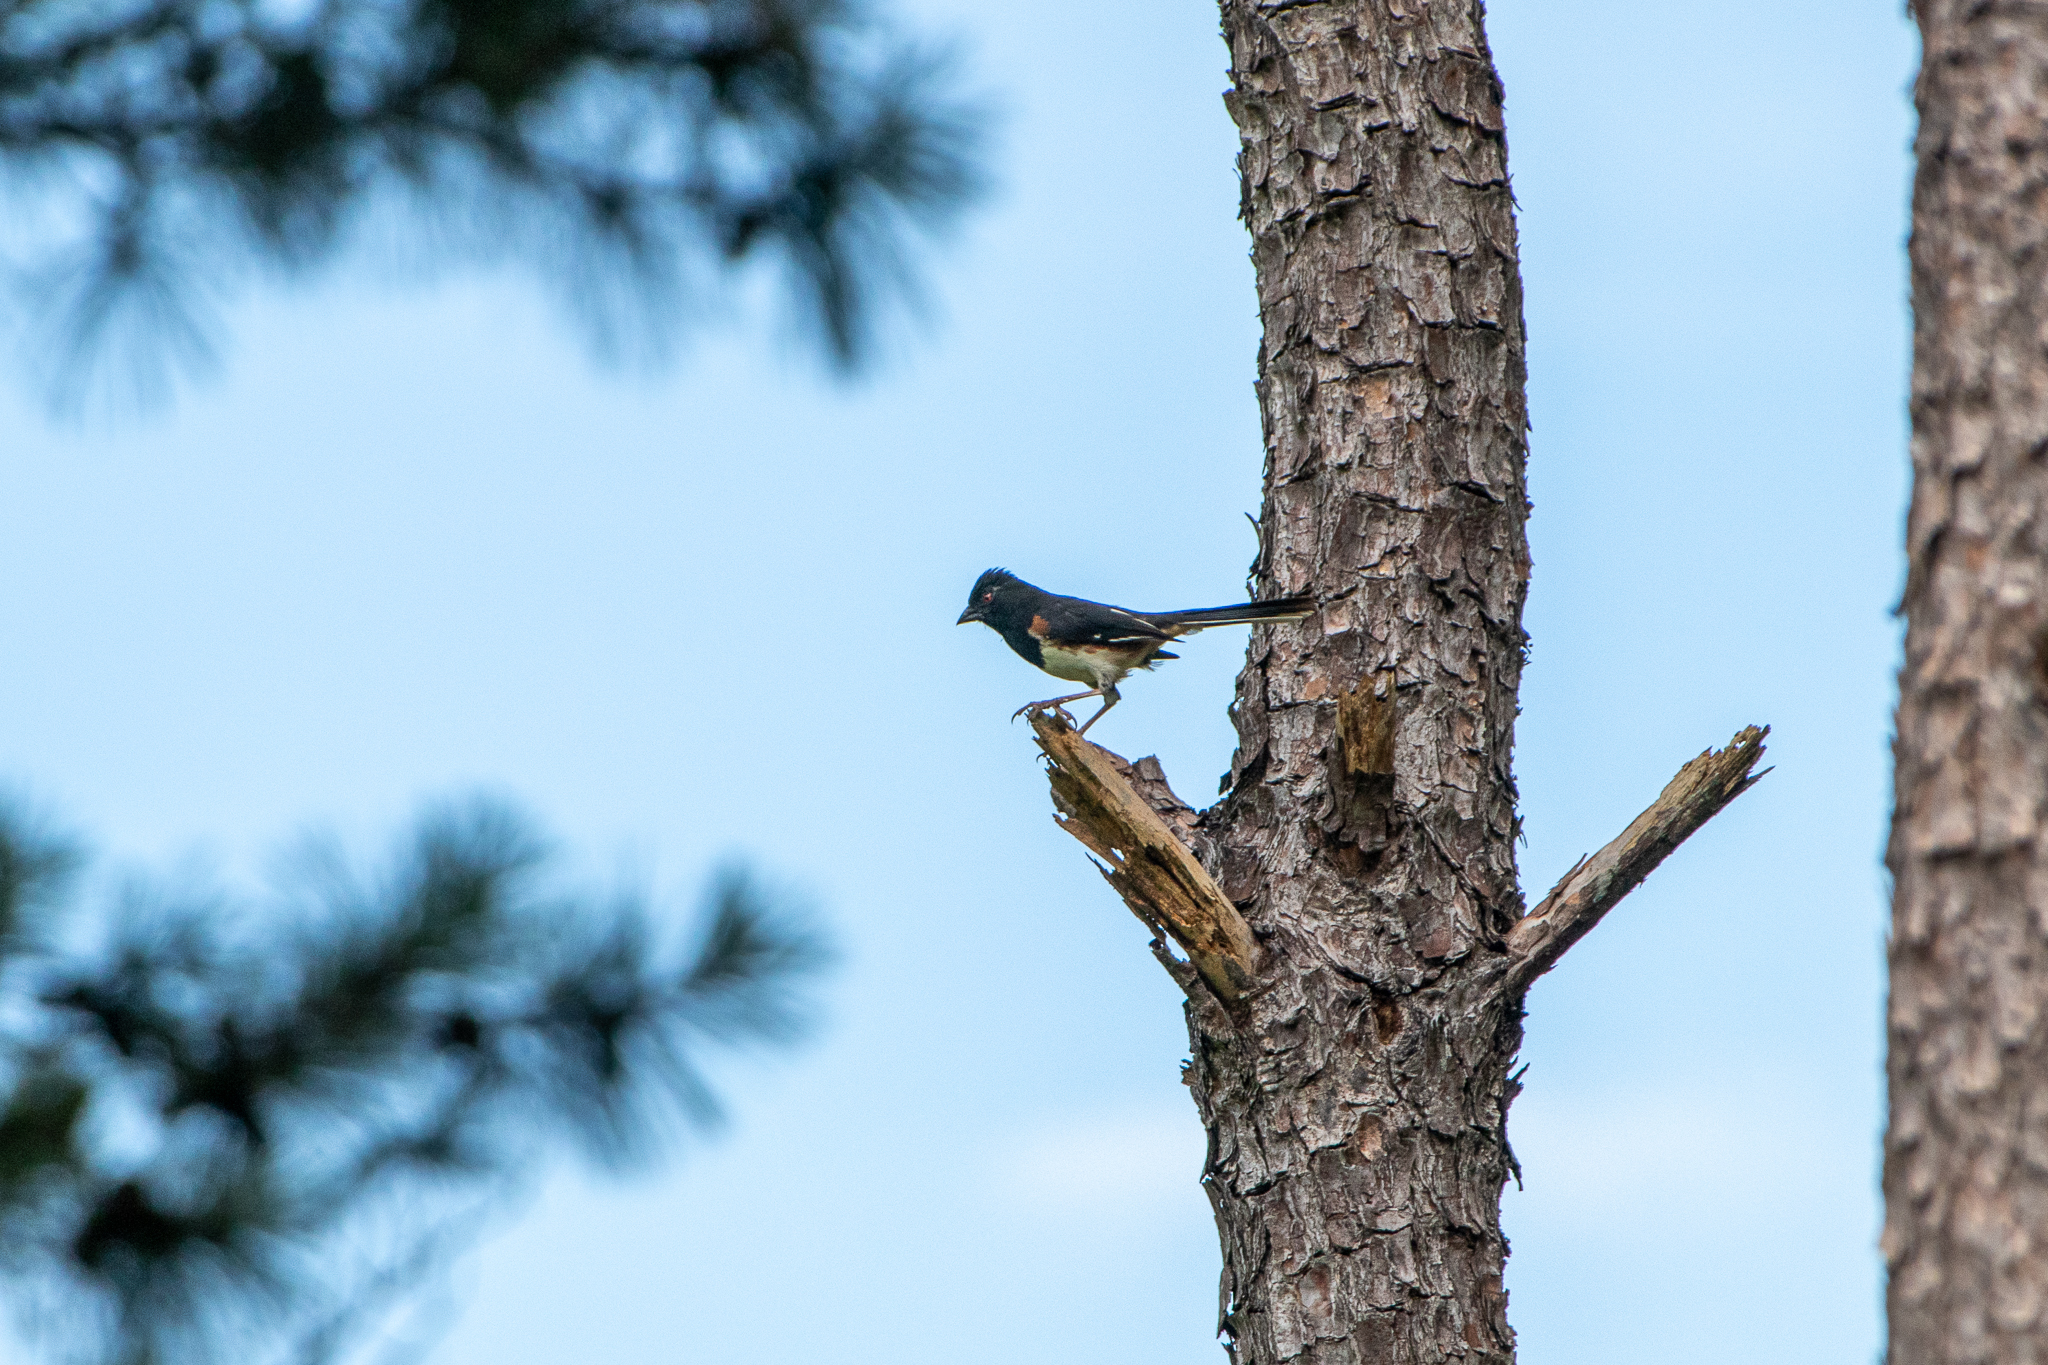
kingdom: Animalia
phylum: Chordata
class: Aves
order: Passeriformes
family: Passerellidae
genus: Pipilo
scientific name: Pipilo erythrophthalmus
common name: Eastern towhee
